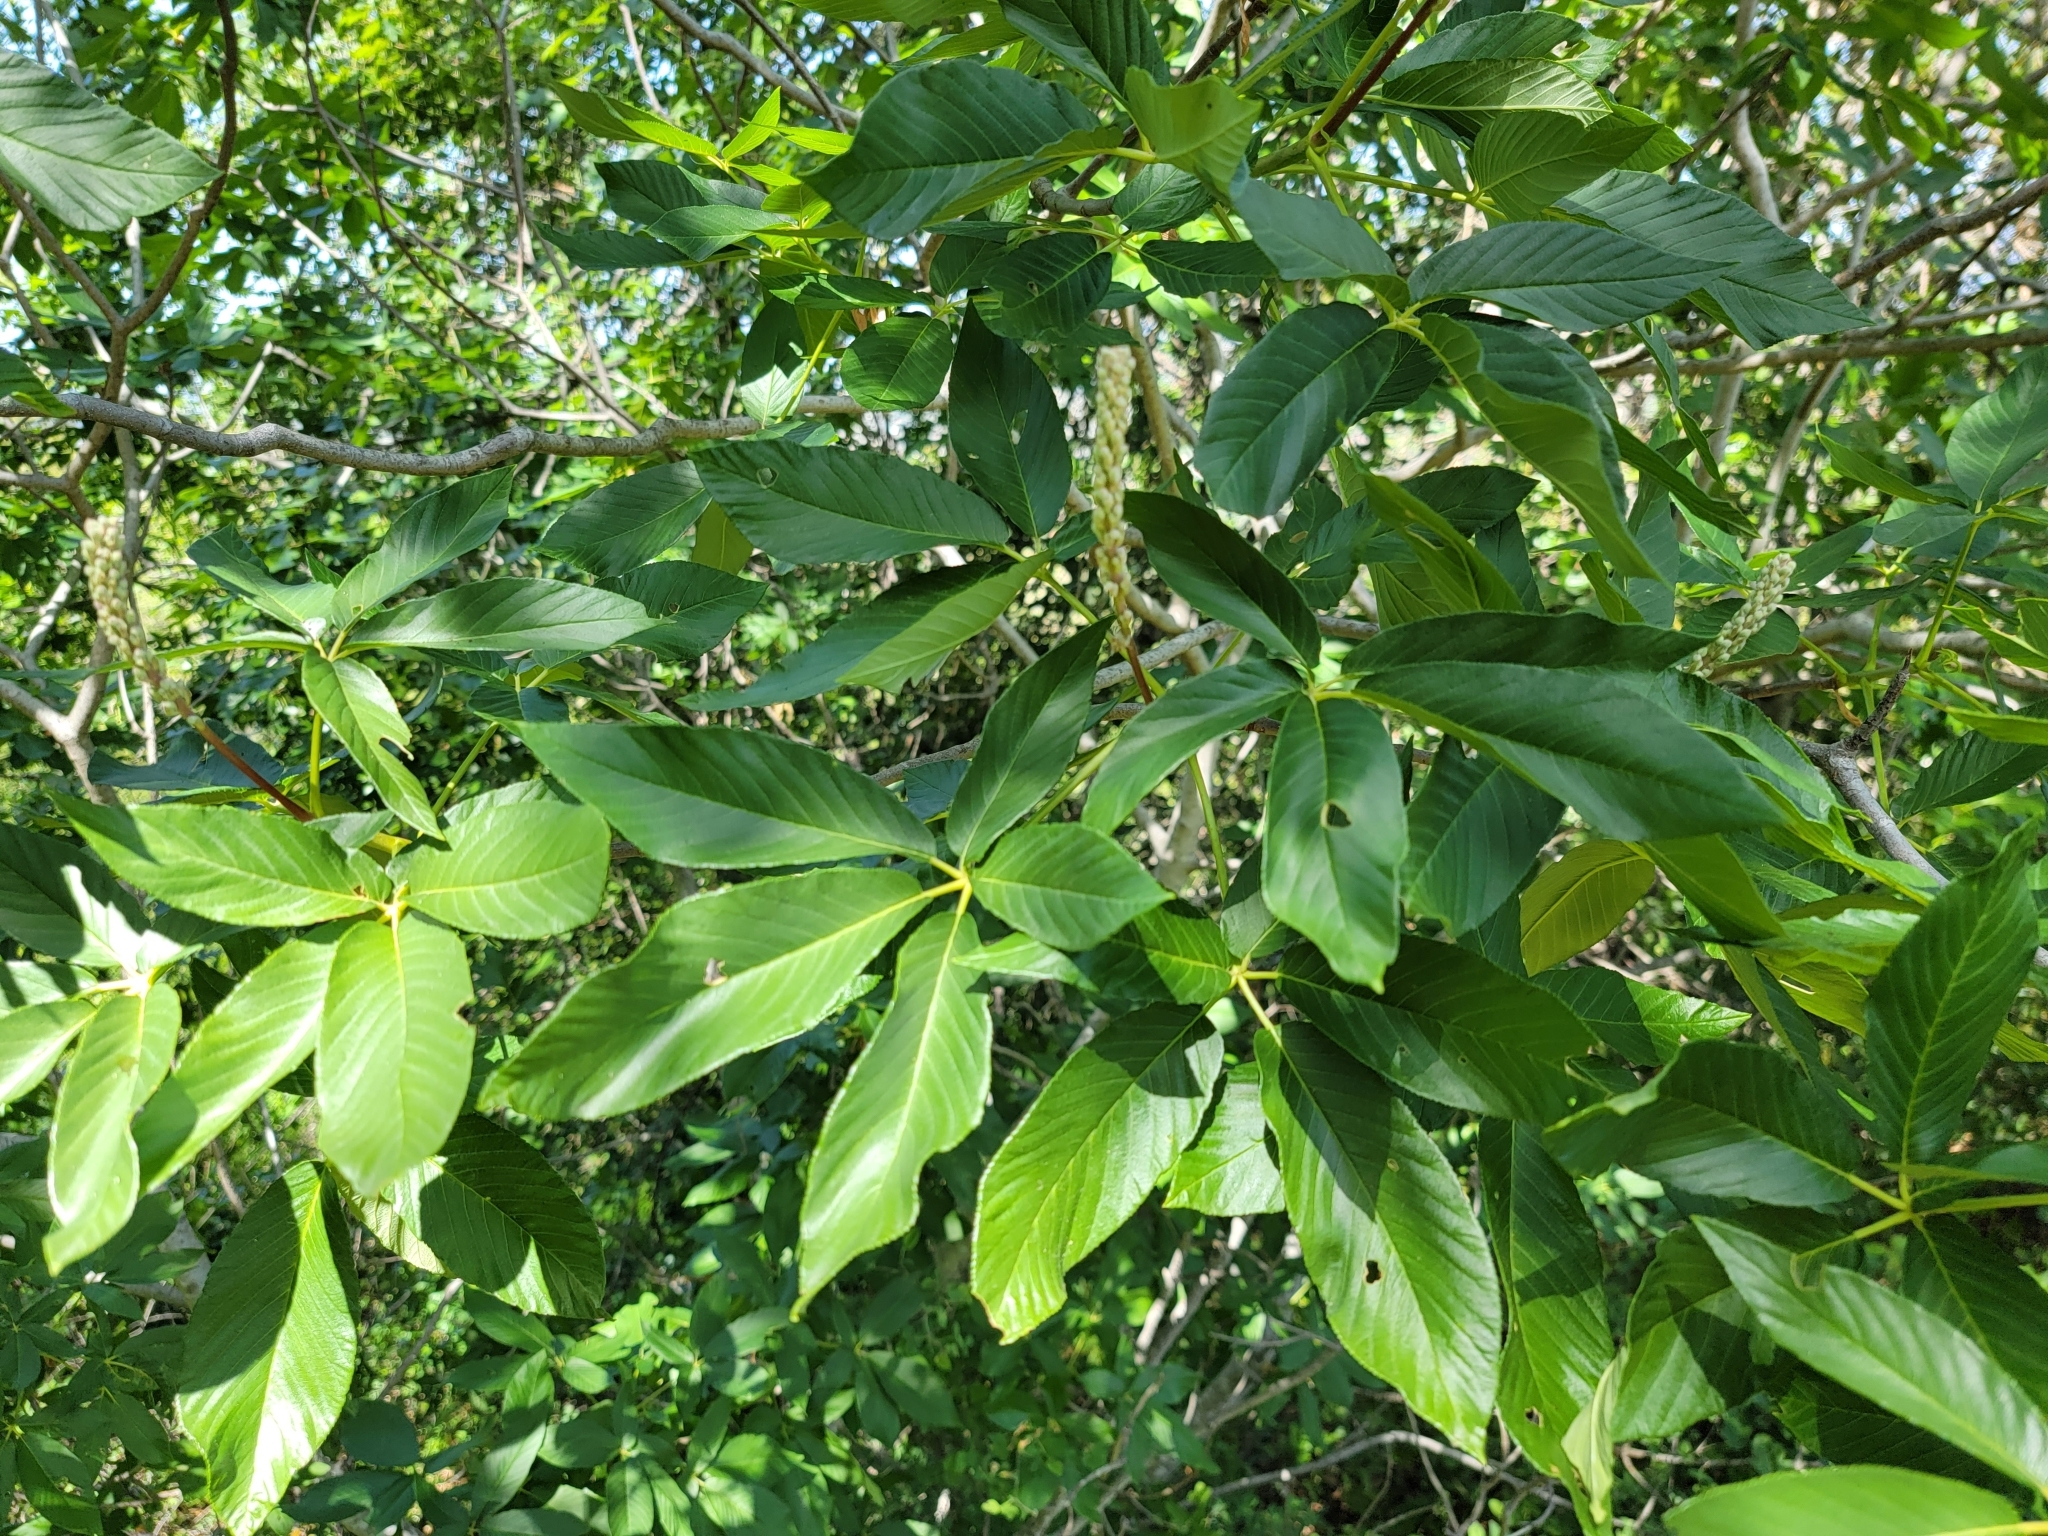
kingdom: Plantae
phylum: Tracheophyta
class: Magnoliopsida
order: Sapindales
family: Sapindaceae
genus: Aesculus
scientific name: Aesculus californica
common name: California buckeye
